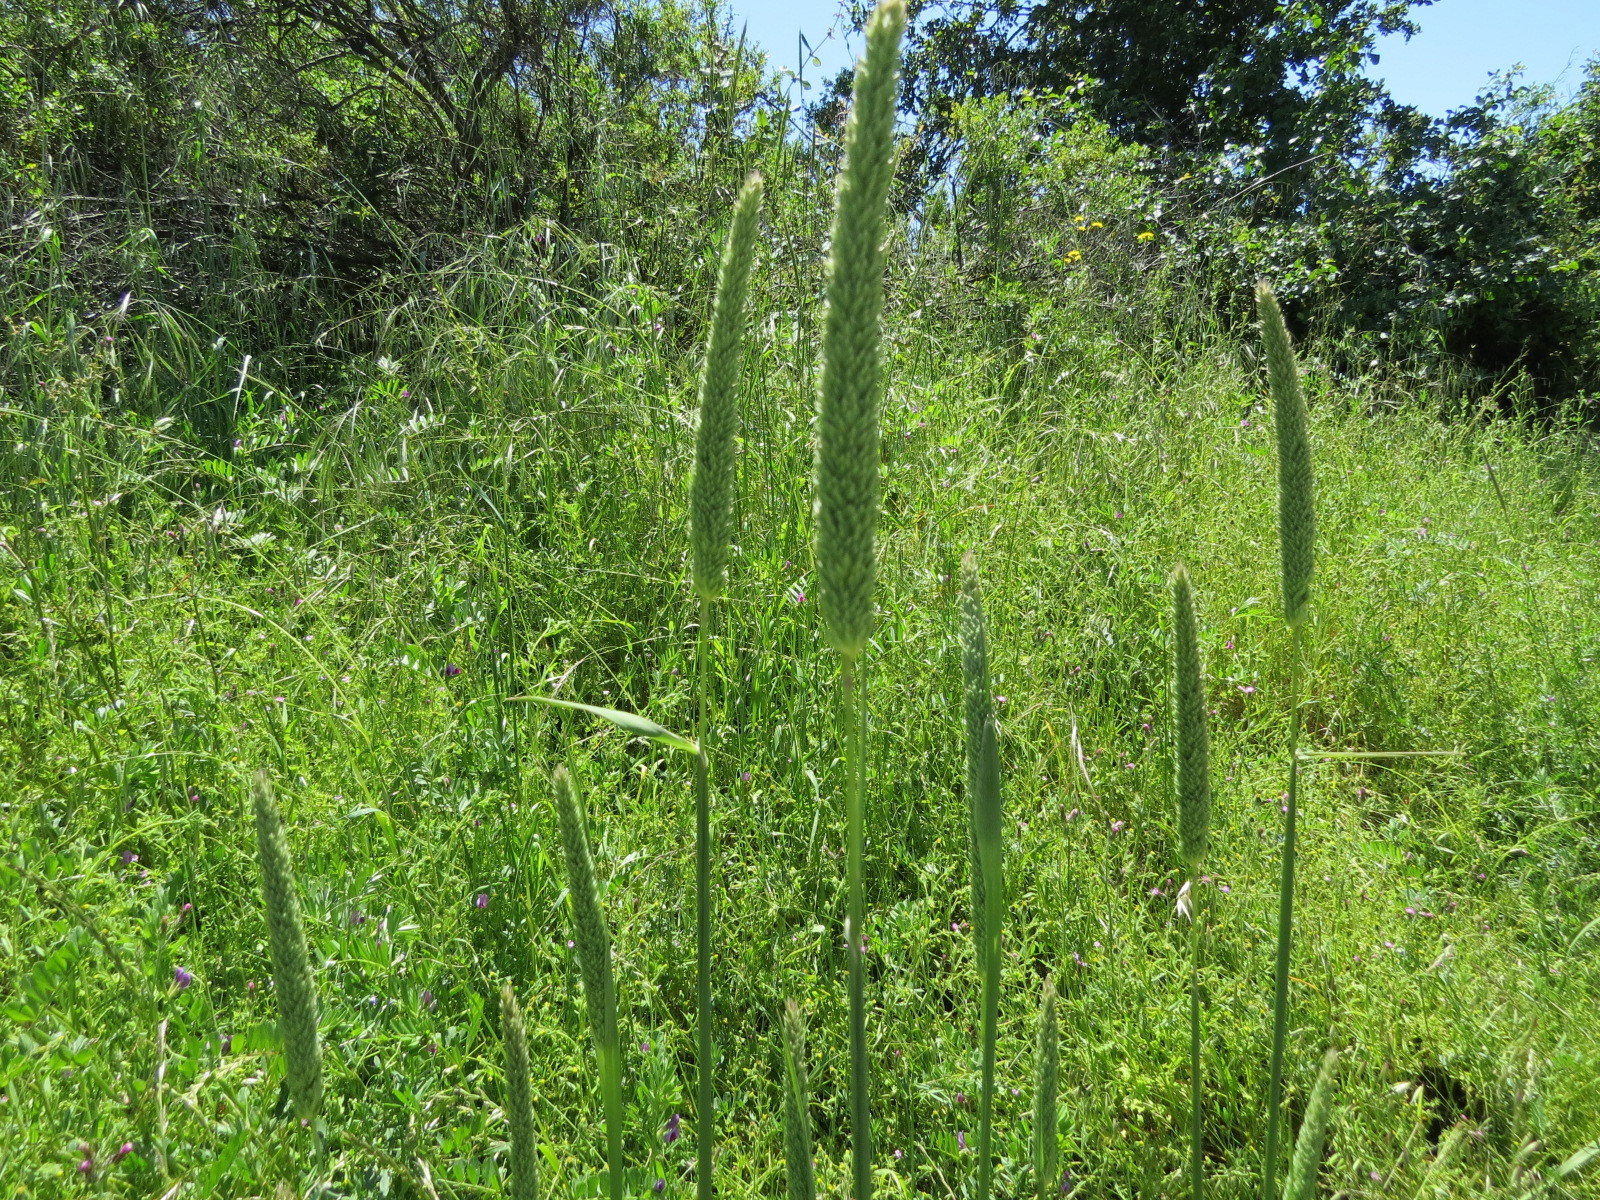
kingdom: Plantae
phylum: Tracheophyta
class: Liliopsida
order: Poales
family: Poaceae
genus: Phalaris
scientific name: Phalaris aquatica
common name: Bulbous canary-grass
